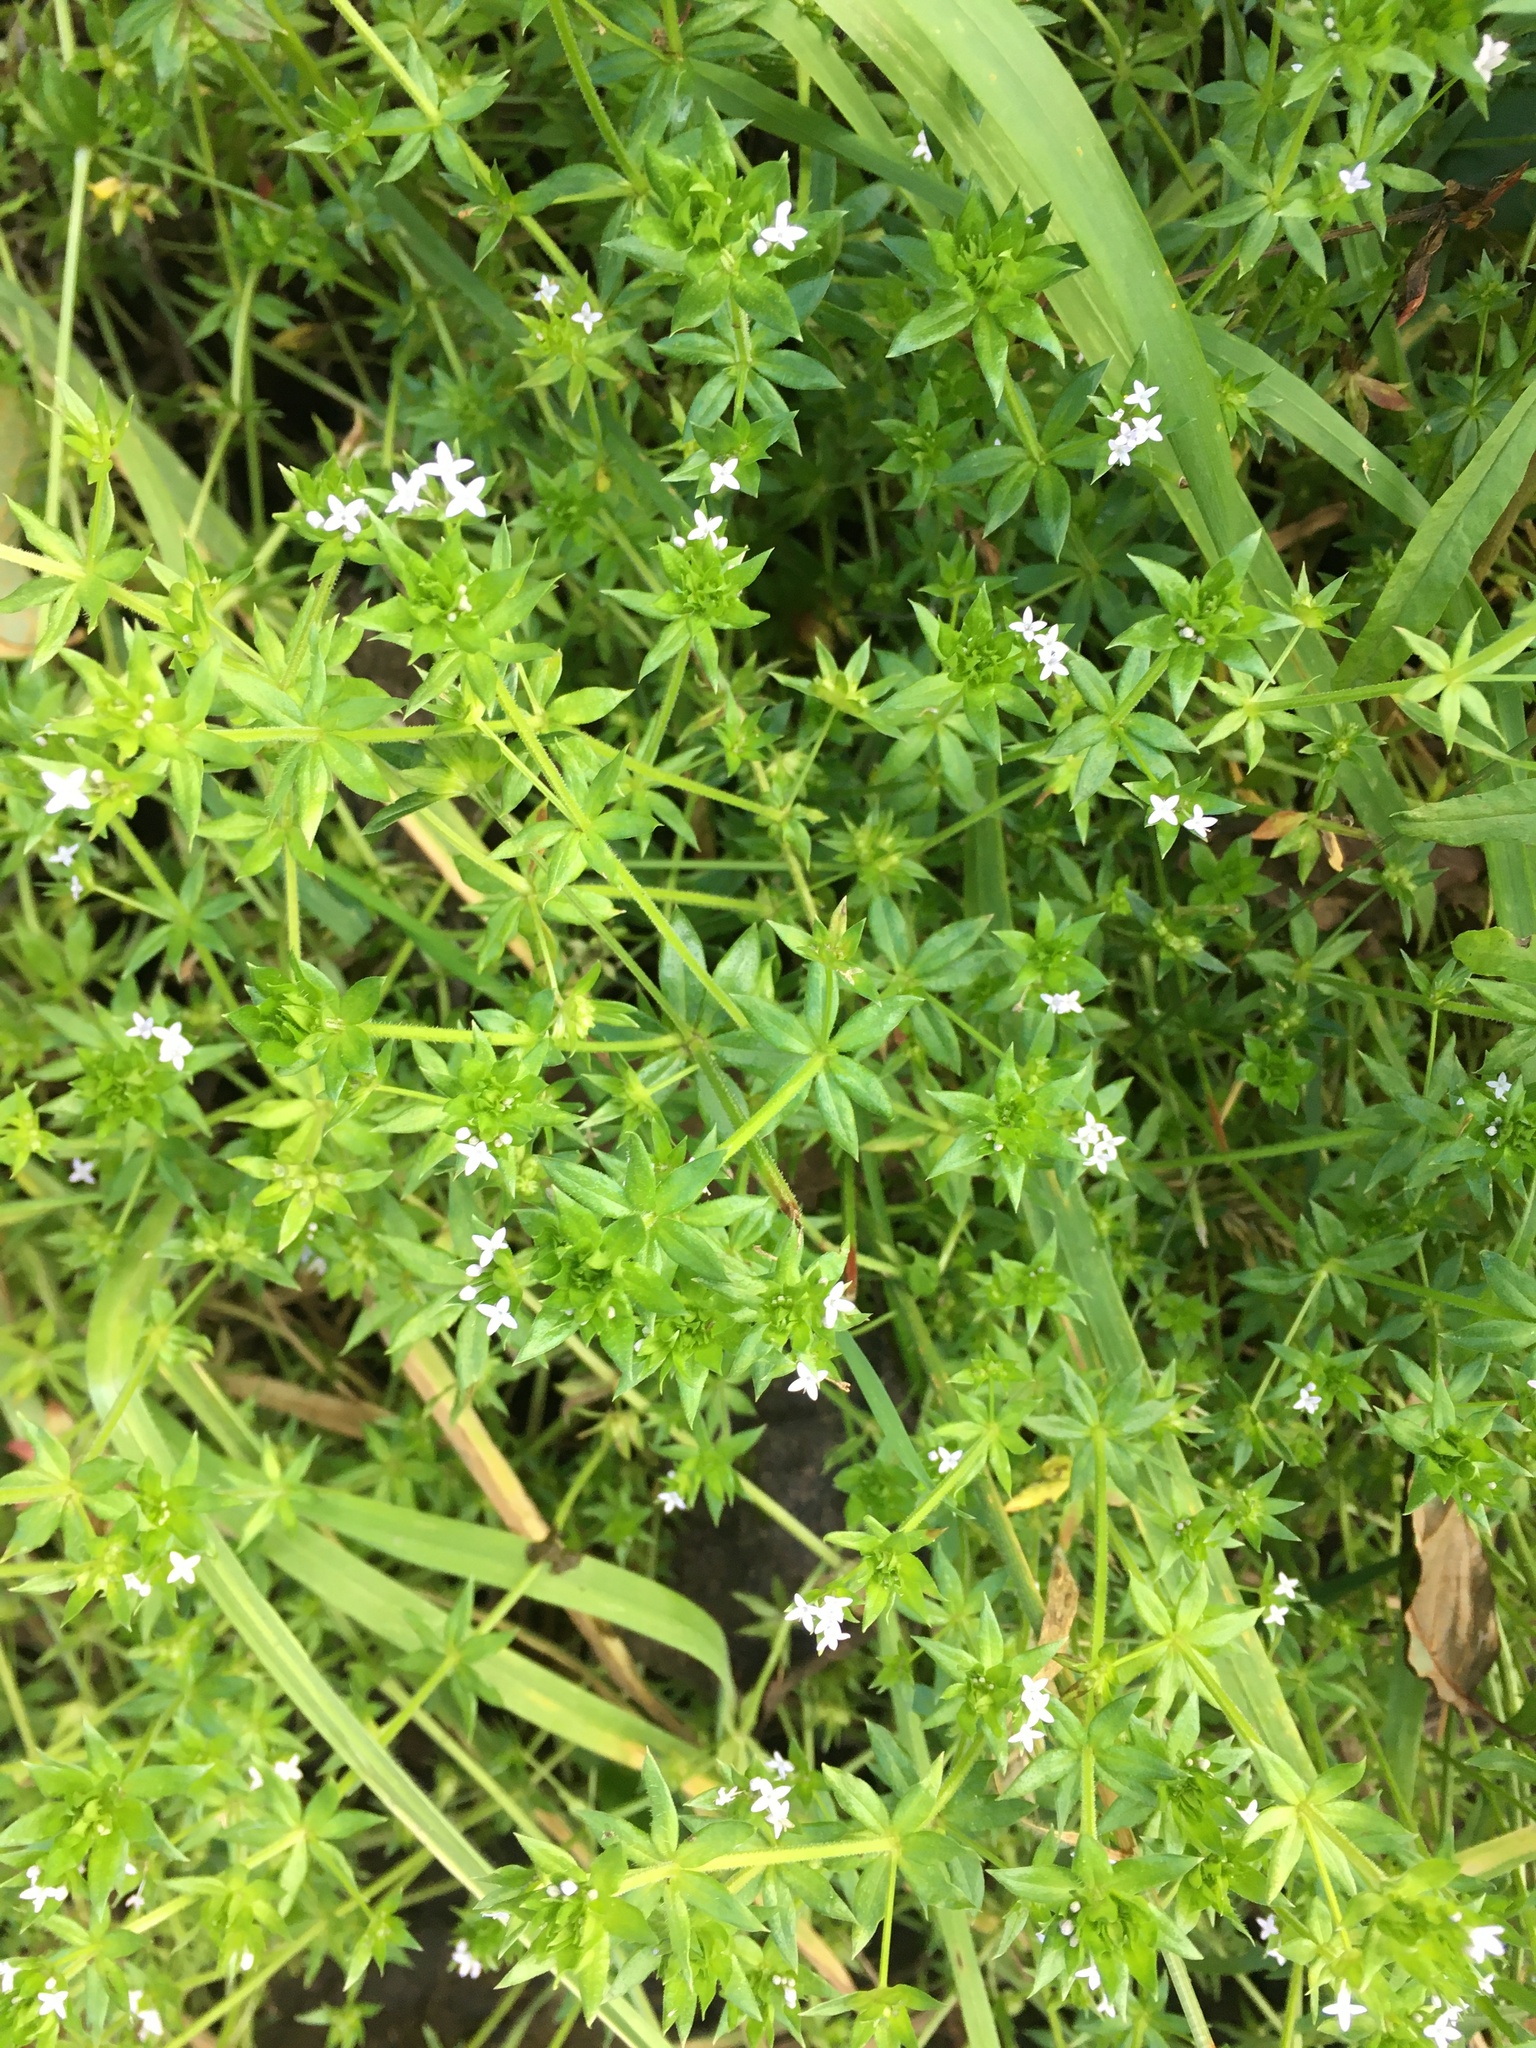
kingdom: Plantae
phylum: Tracheophyta
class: Magnoliopsida
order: Gentianales
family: Rubiaceae
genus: Sherardia
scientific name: Sherardia arvensis
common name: Field madder
